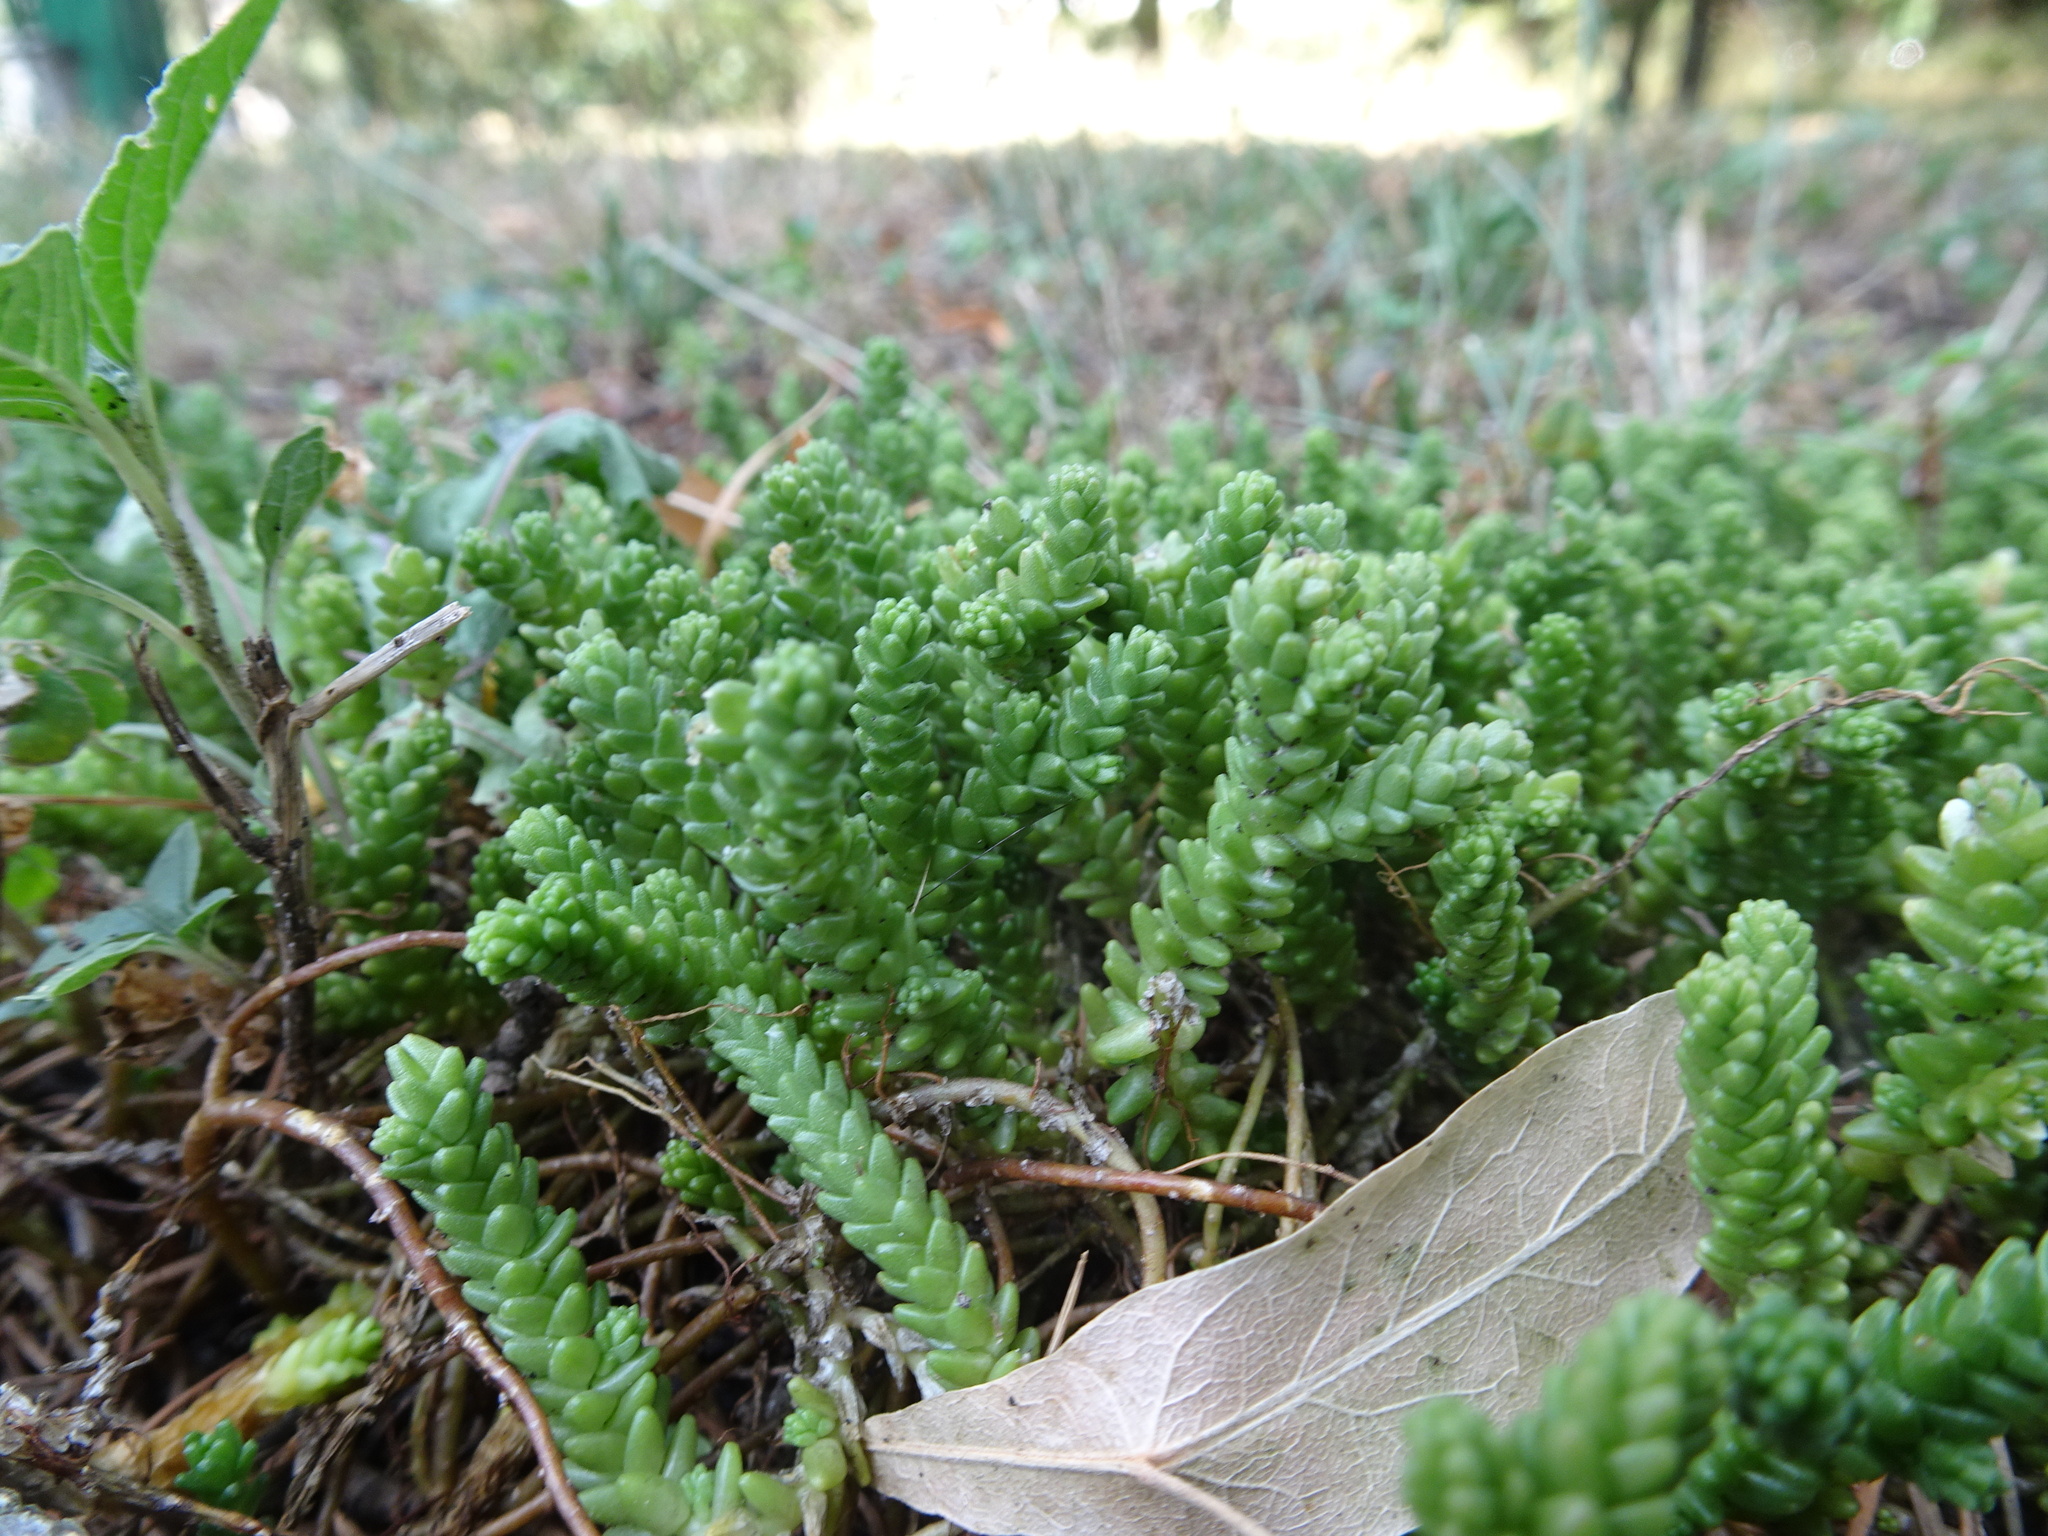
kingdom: Plantae
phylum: Tracheophyta
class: Magnoliopsida
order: Saxifragales
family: Crassulaceae
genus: Sedum
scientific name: Sedum acre
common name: Biting stonecrop
